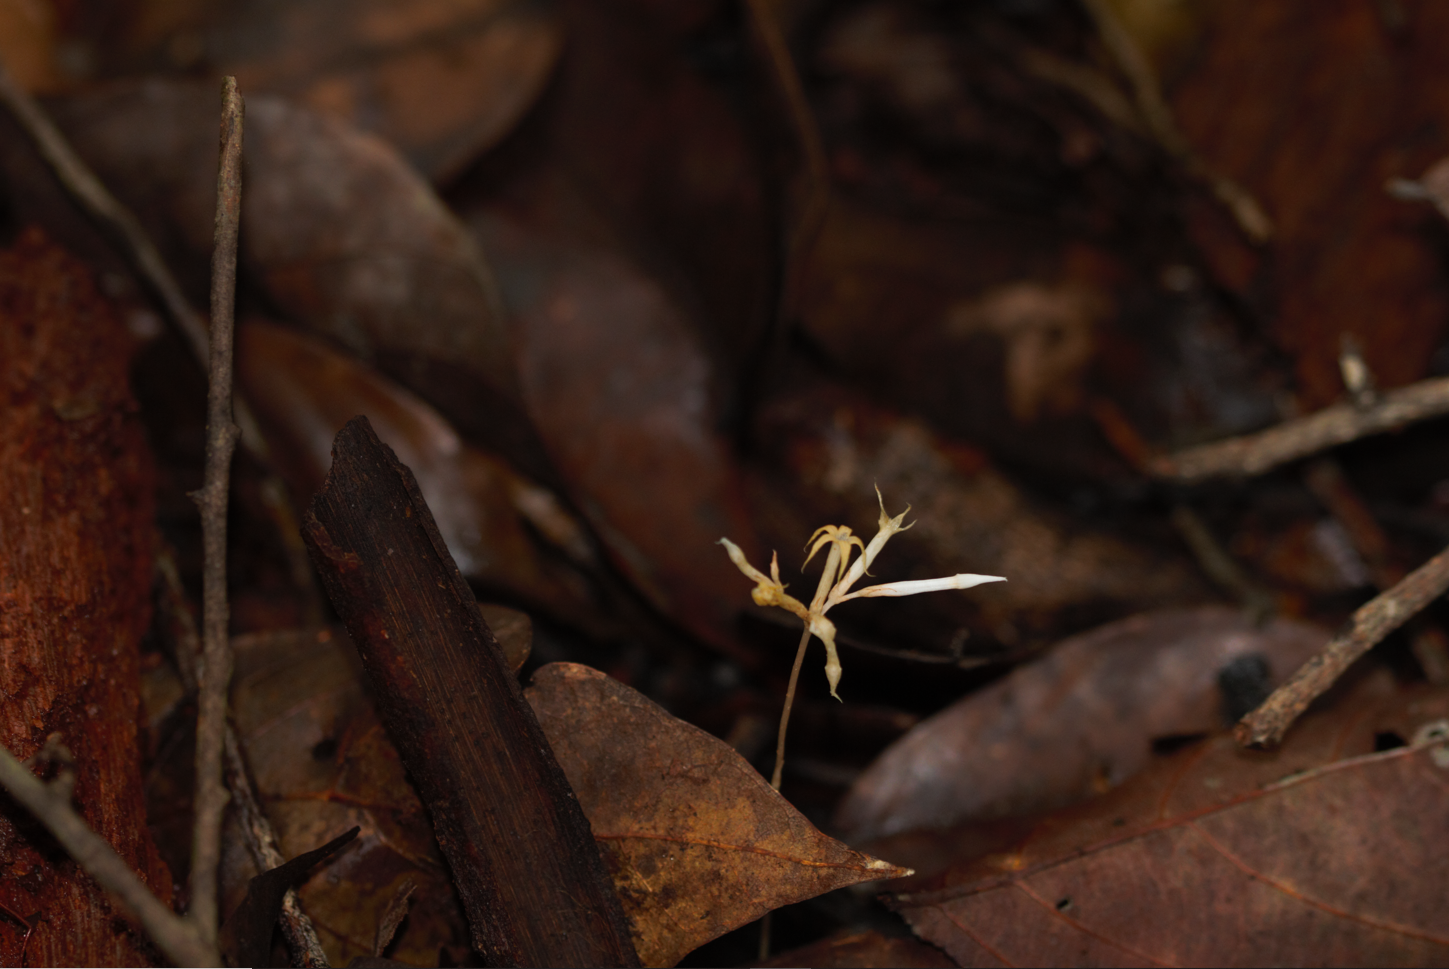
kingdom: Plantae
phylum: Tracheophyta
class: Magnoliopsida
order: Gentianales
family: Gentianaceae
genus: Voyria
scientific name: Voyria corymbosa
